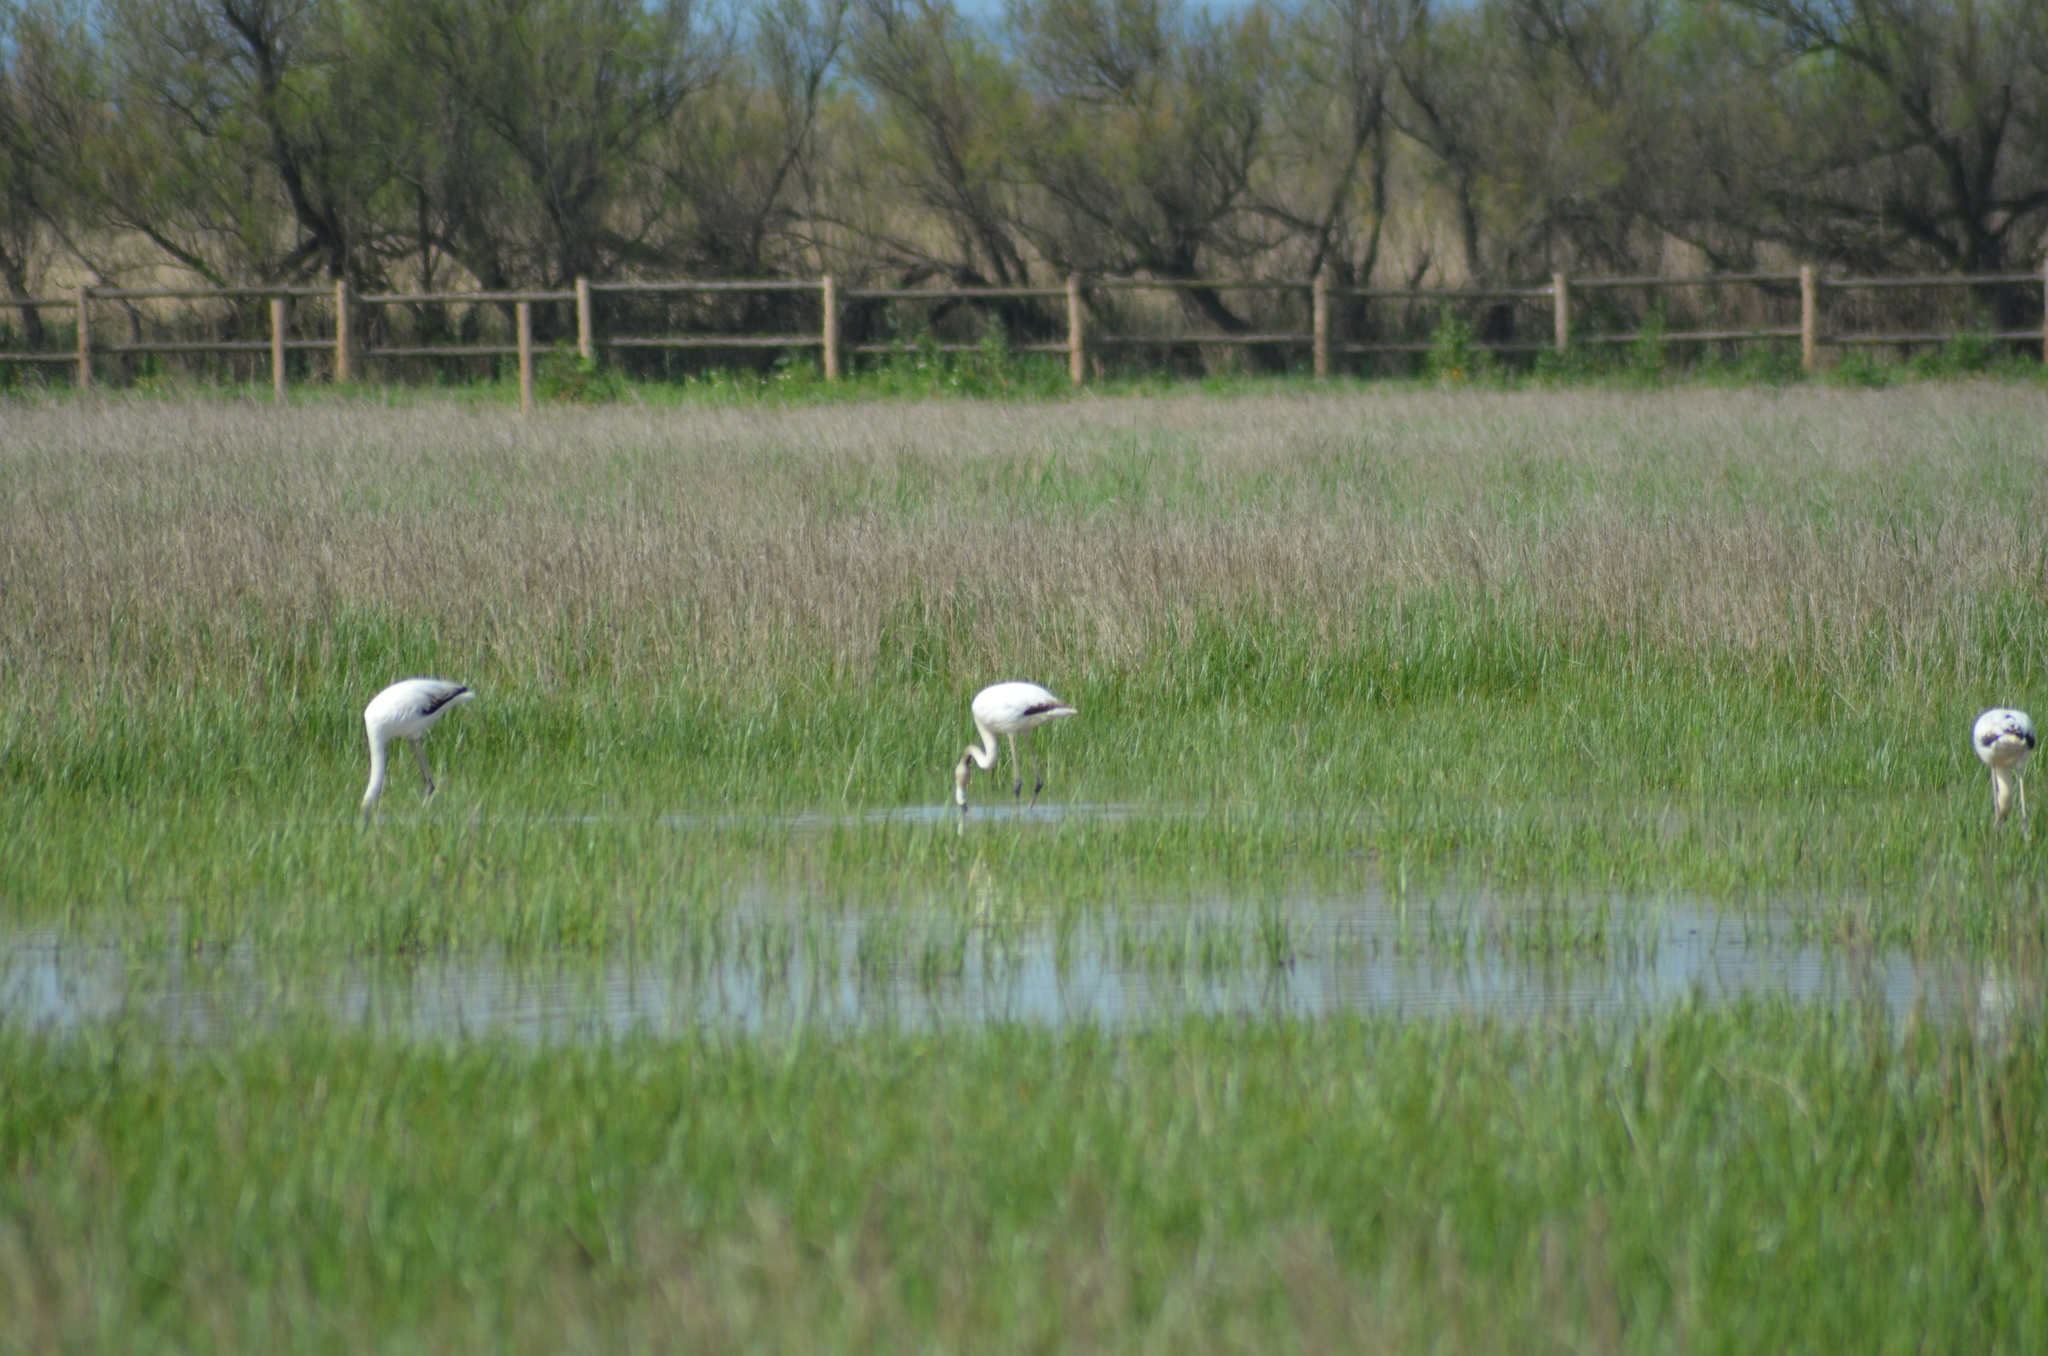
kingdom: Animalia
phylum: Chordata
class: Aves
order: Phoenicopteriformes
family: Phoenicopteridae
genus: Phoenicopterus
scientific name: Phoenicopterus roseus
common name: Greater flamingo
